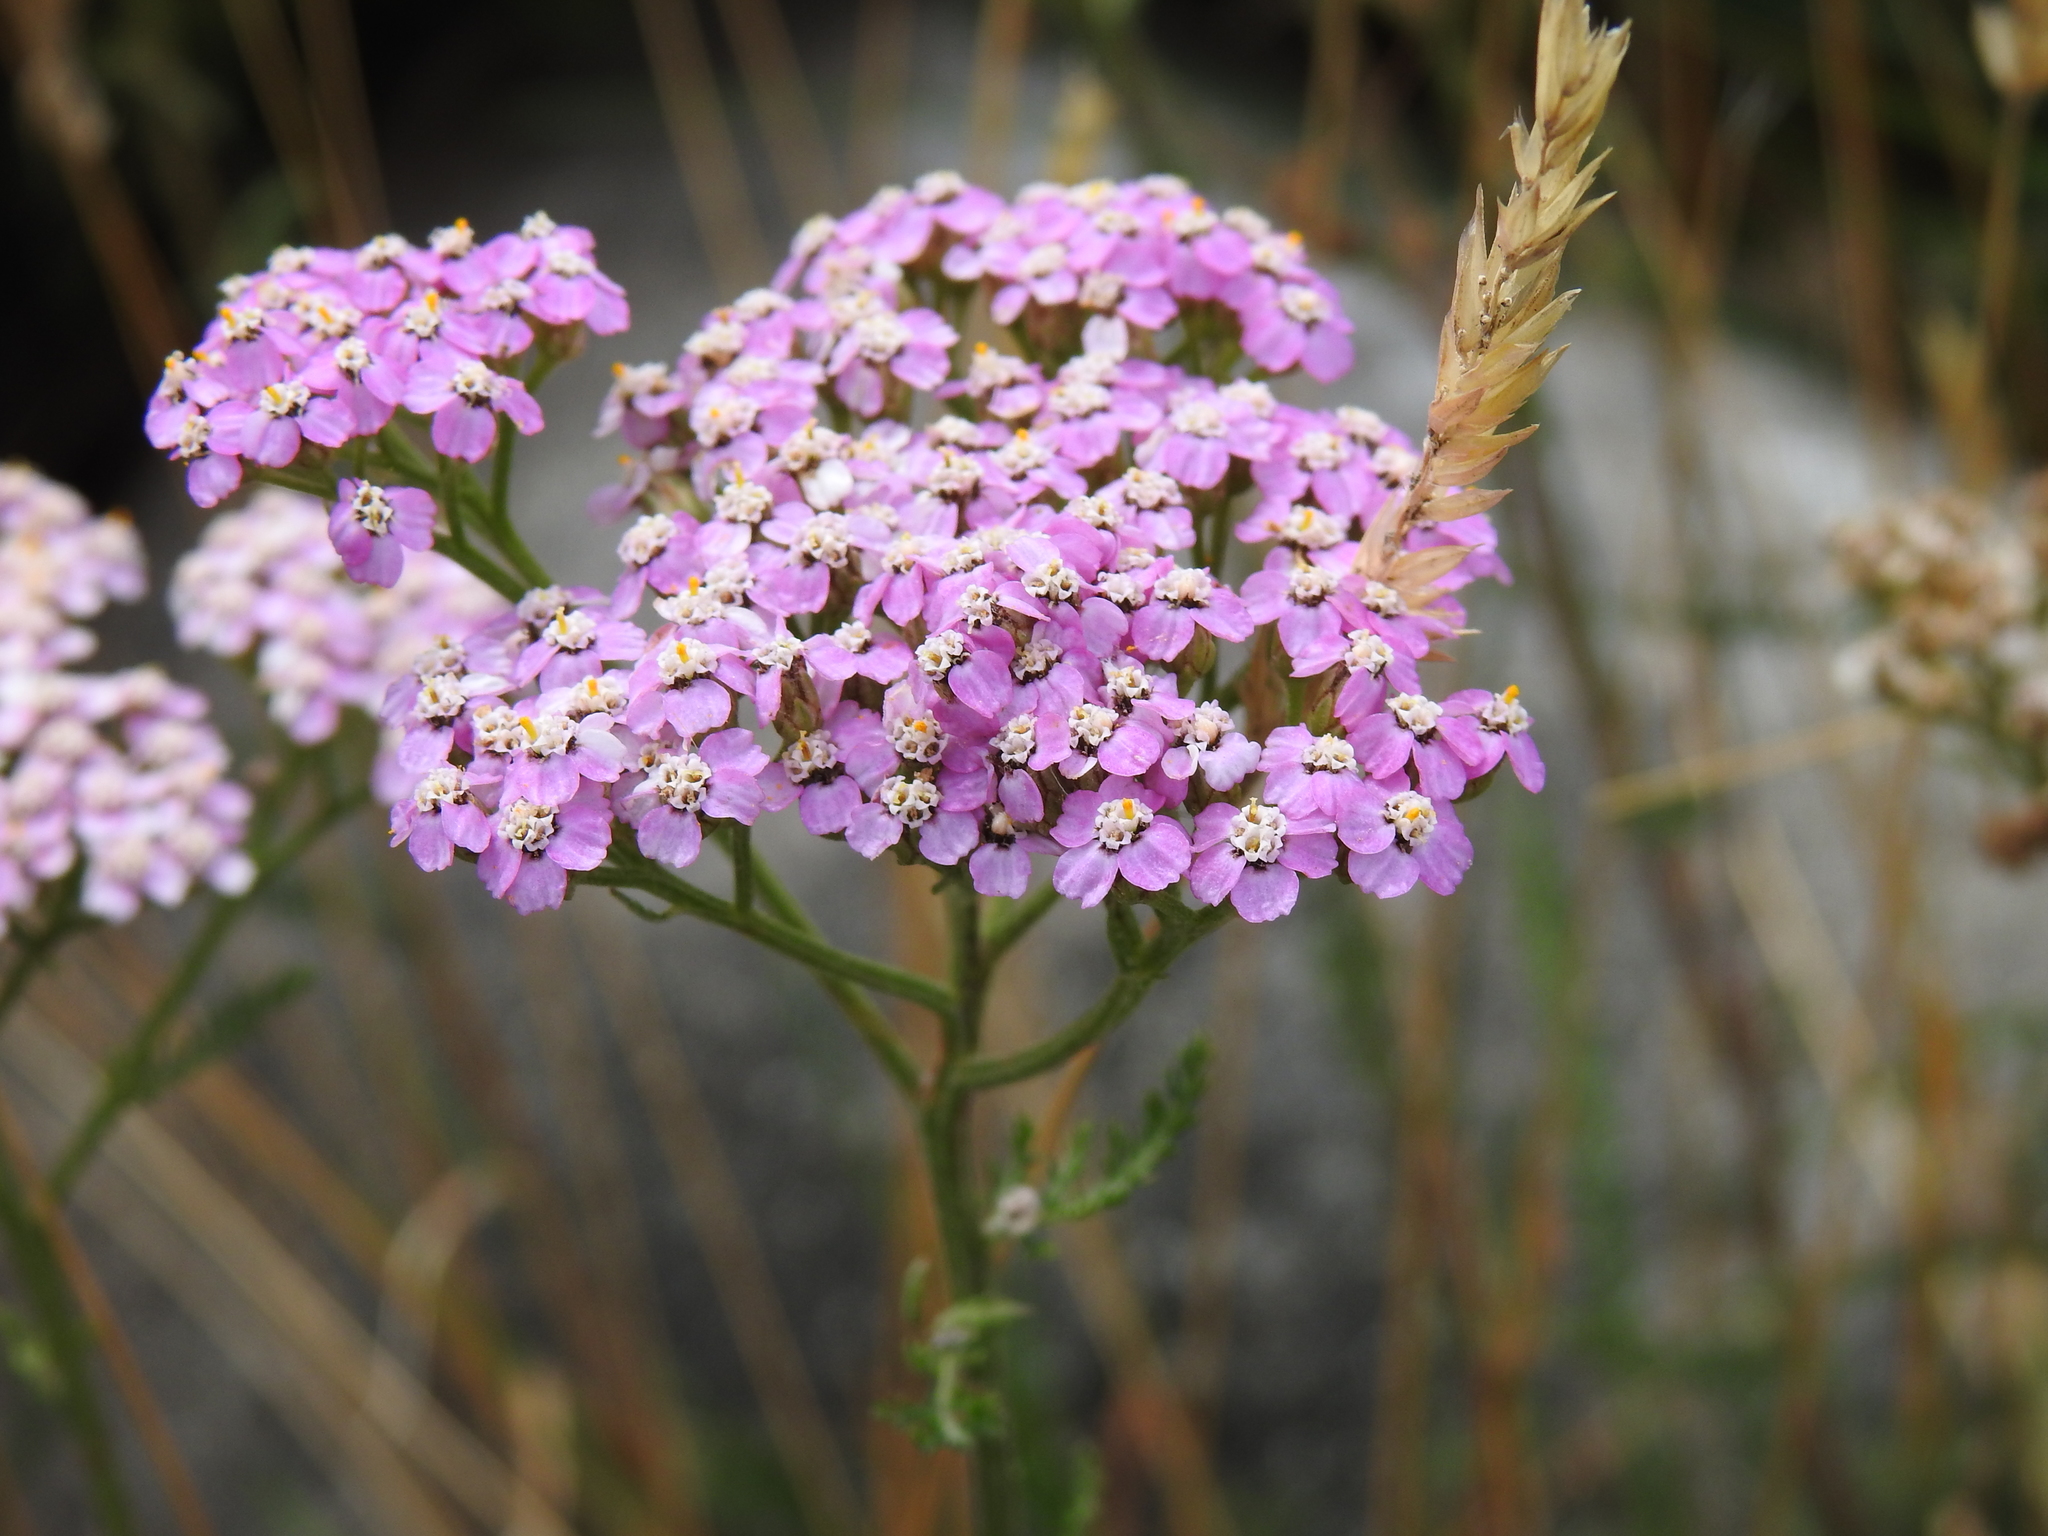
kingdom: Plantae
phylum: Tracheophyta
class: Magnoliopsida
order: Asterales
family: Asteraceae
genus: Achillea
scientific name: Achillea millefolium
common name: Yarrow
